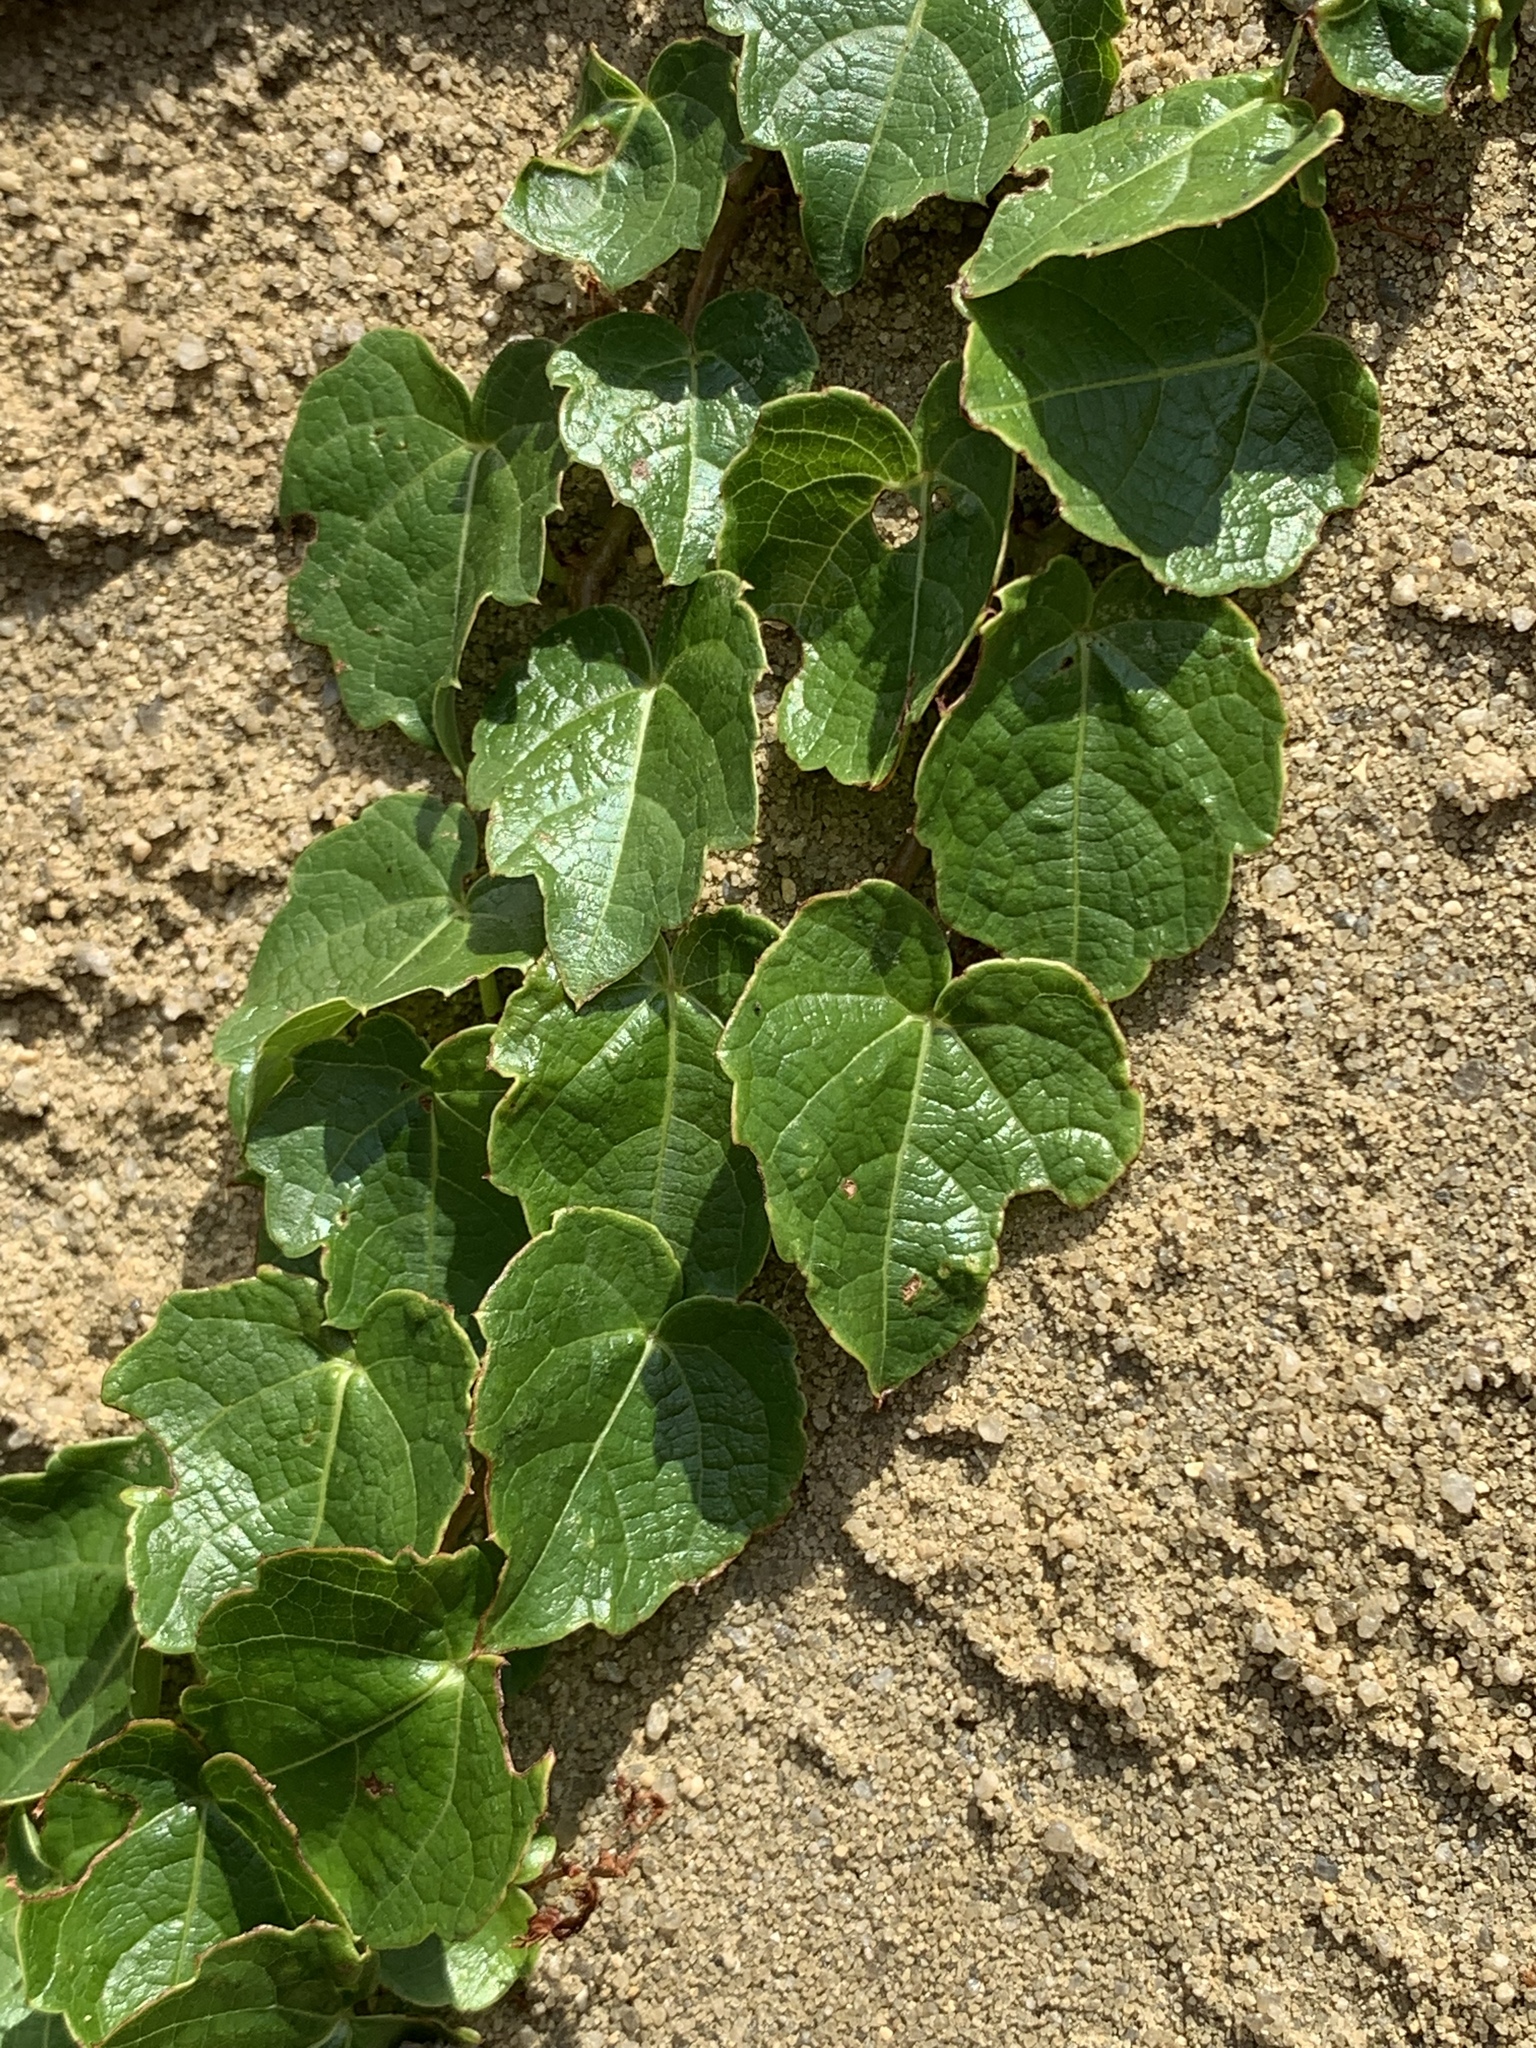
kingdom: Plantae
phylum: Tracheophyta
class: Magnoliopsida
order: Vitales
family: Vitaceae
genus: Parthenocissus
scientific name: Parthenocissus tricuspidata
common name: Boston ivy
